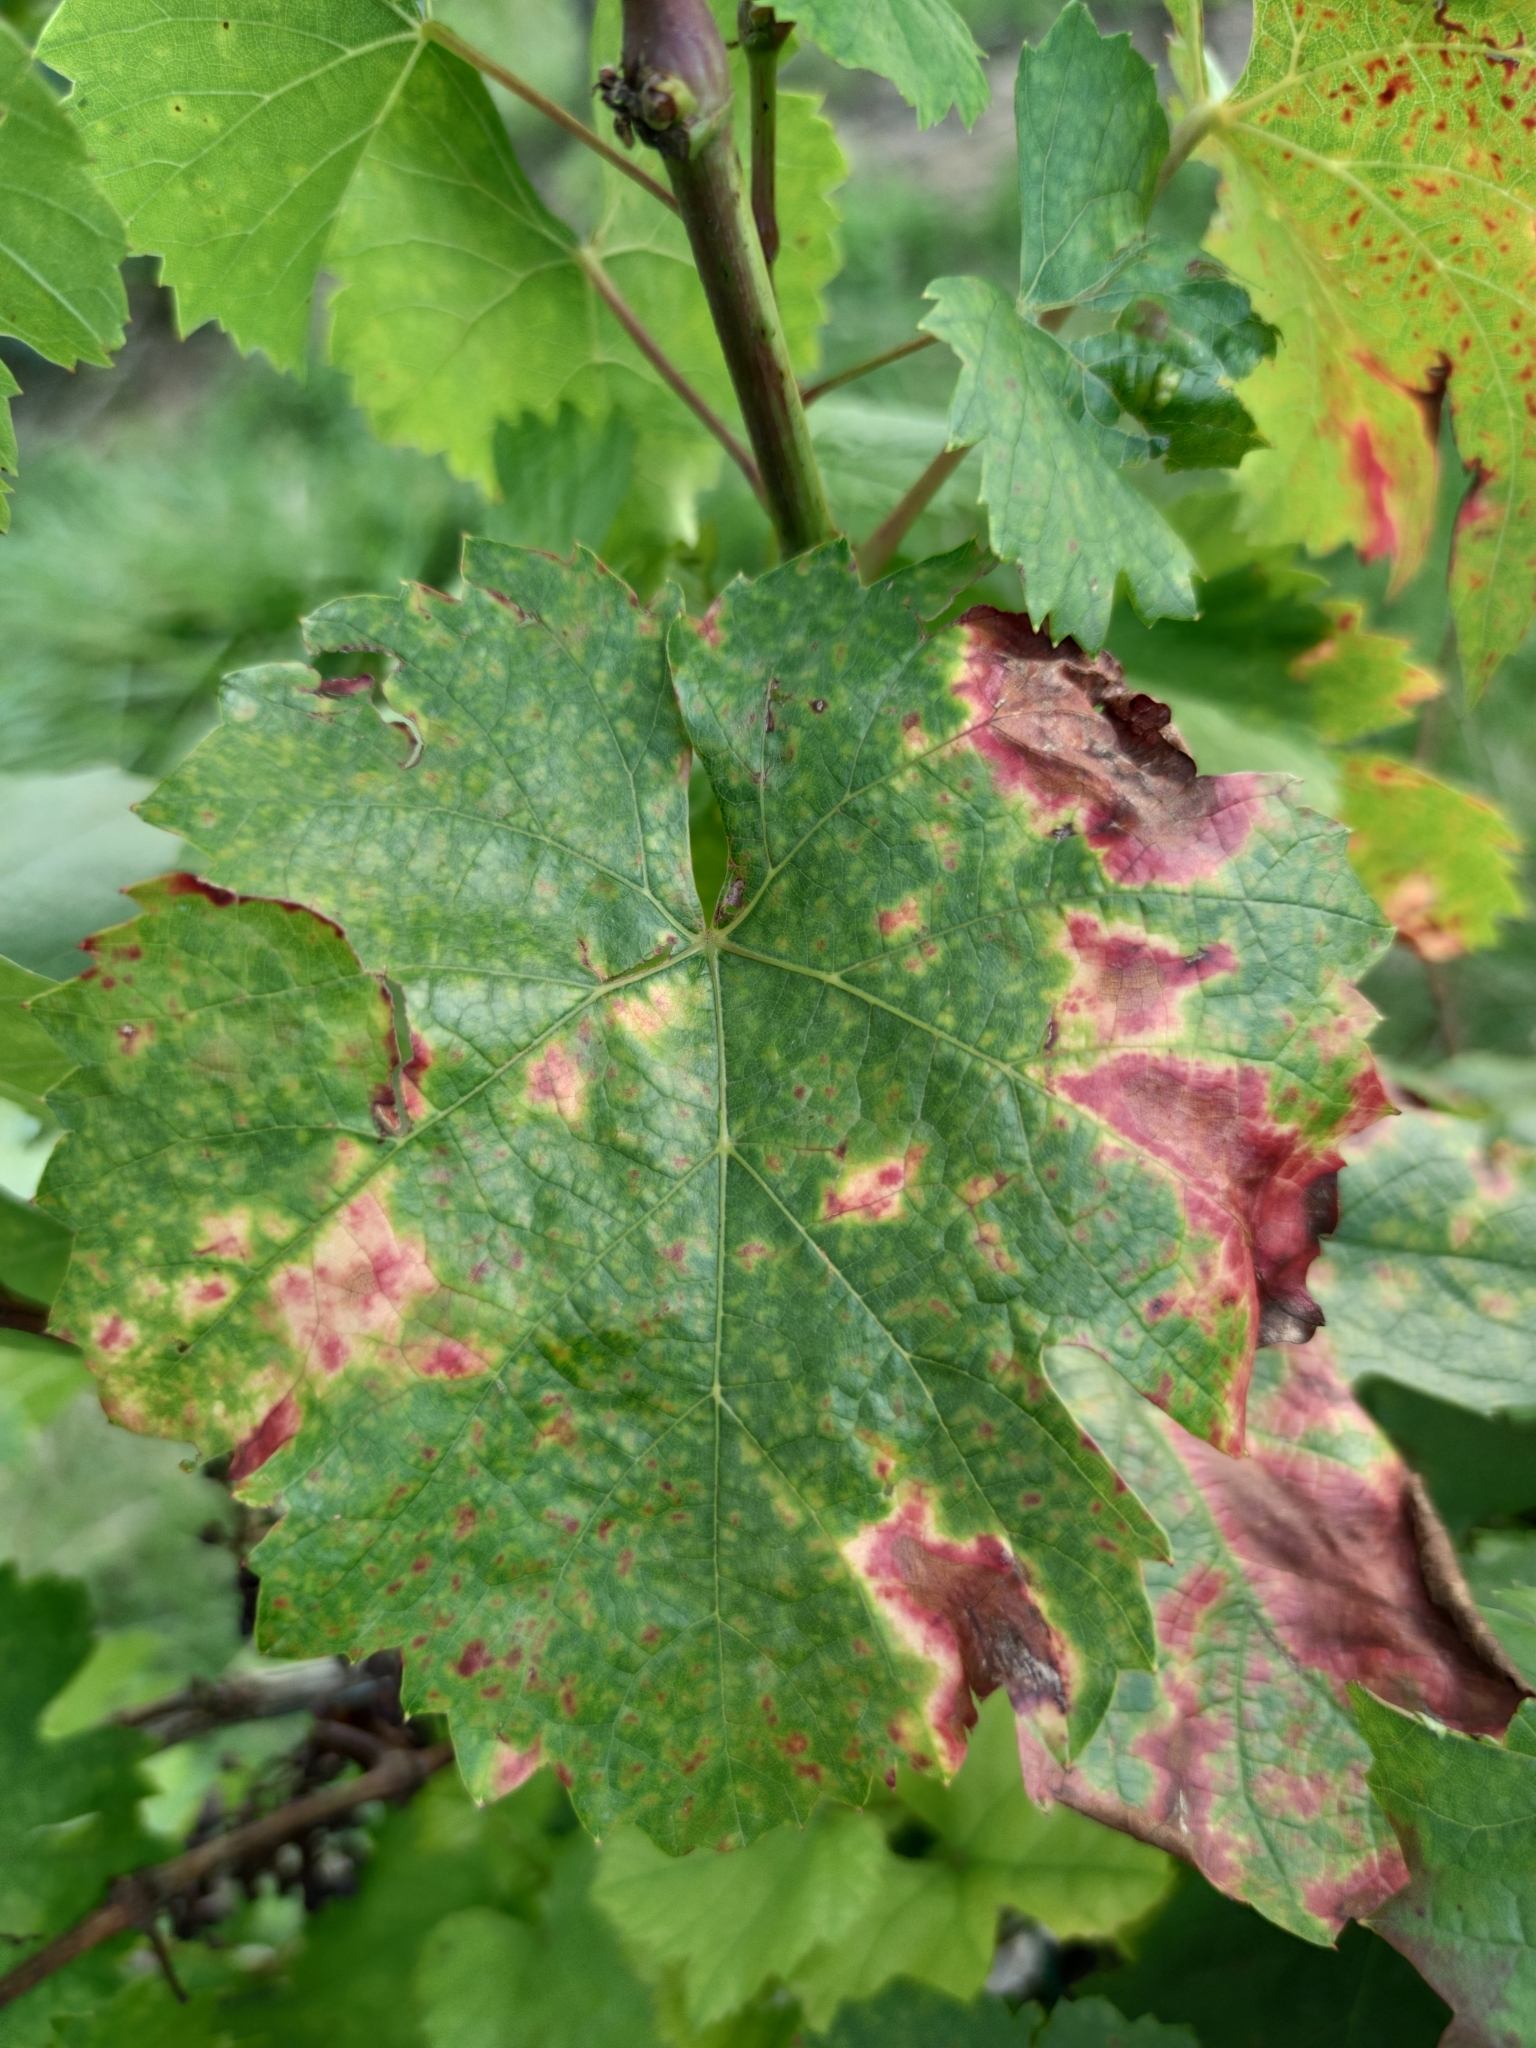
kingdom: Plantae
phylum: Tracheophyta
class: Magnoliopsida
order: Vitales
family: Vitaceae
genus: Vitis
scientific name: Vitis vinifera
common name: Grape-vine
